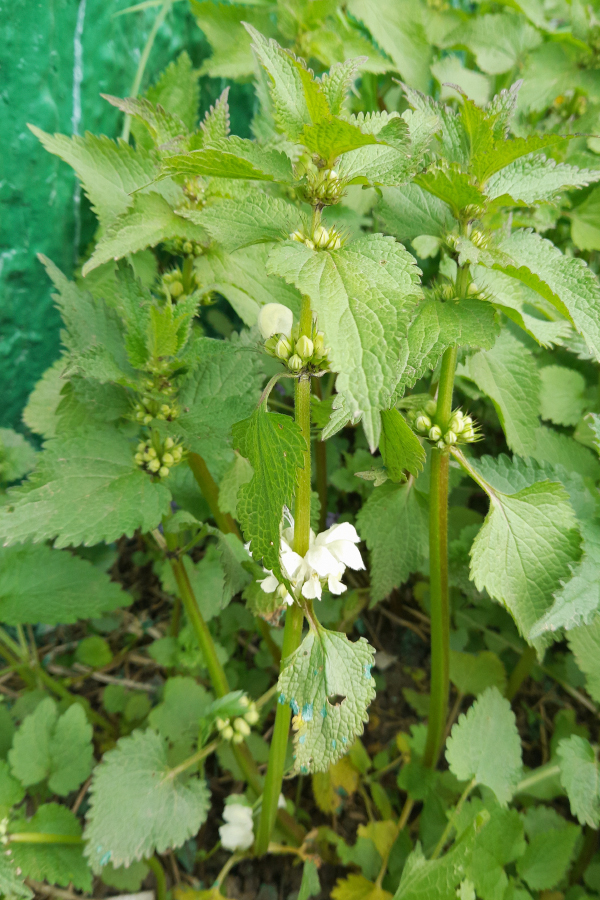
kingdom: Plantae
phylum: Tracheophyta
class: Magnoliopsida
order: Lamiales
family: Lamiaceae
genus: Lamium
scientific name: Lamium album
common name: White dead-nettle
